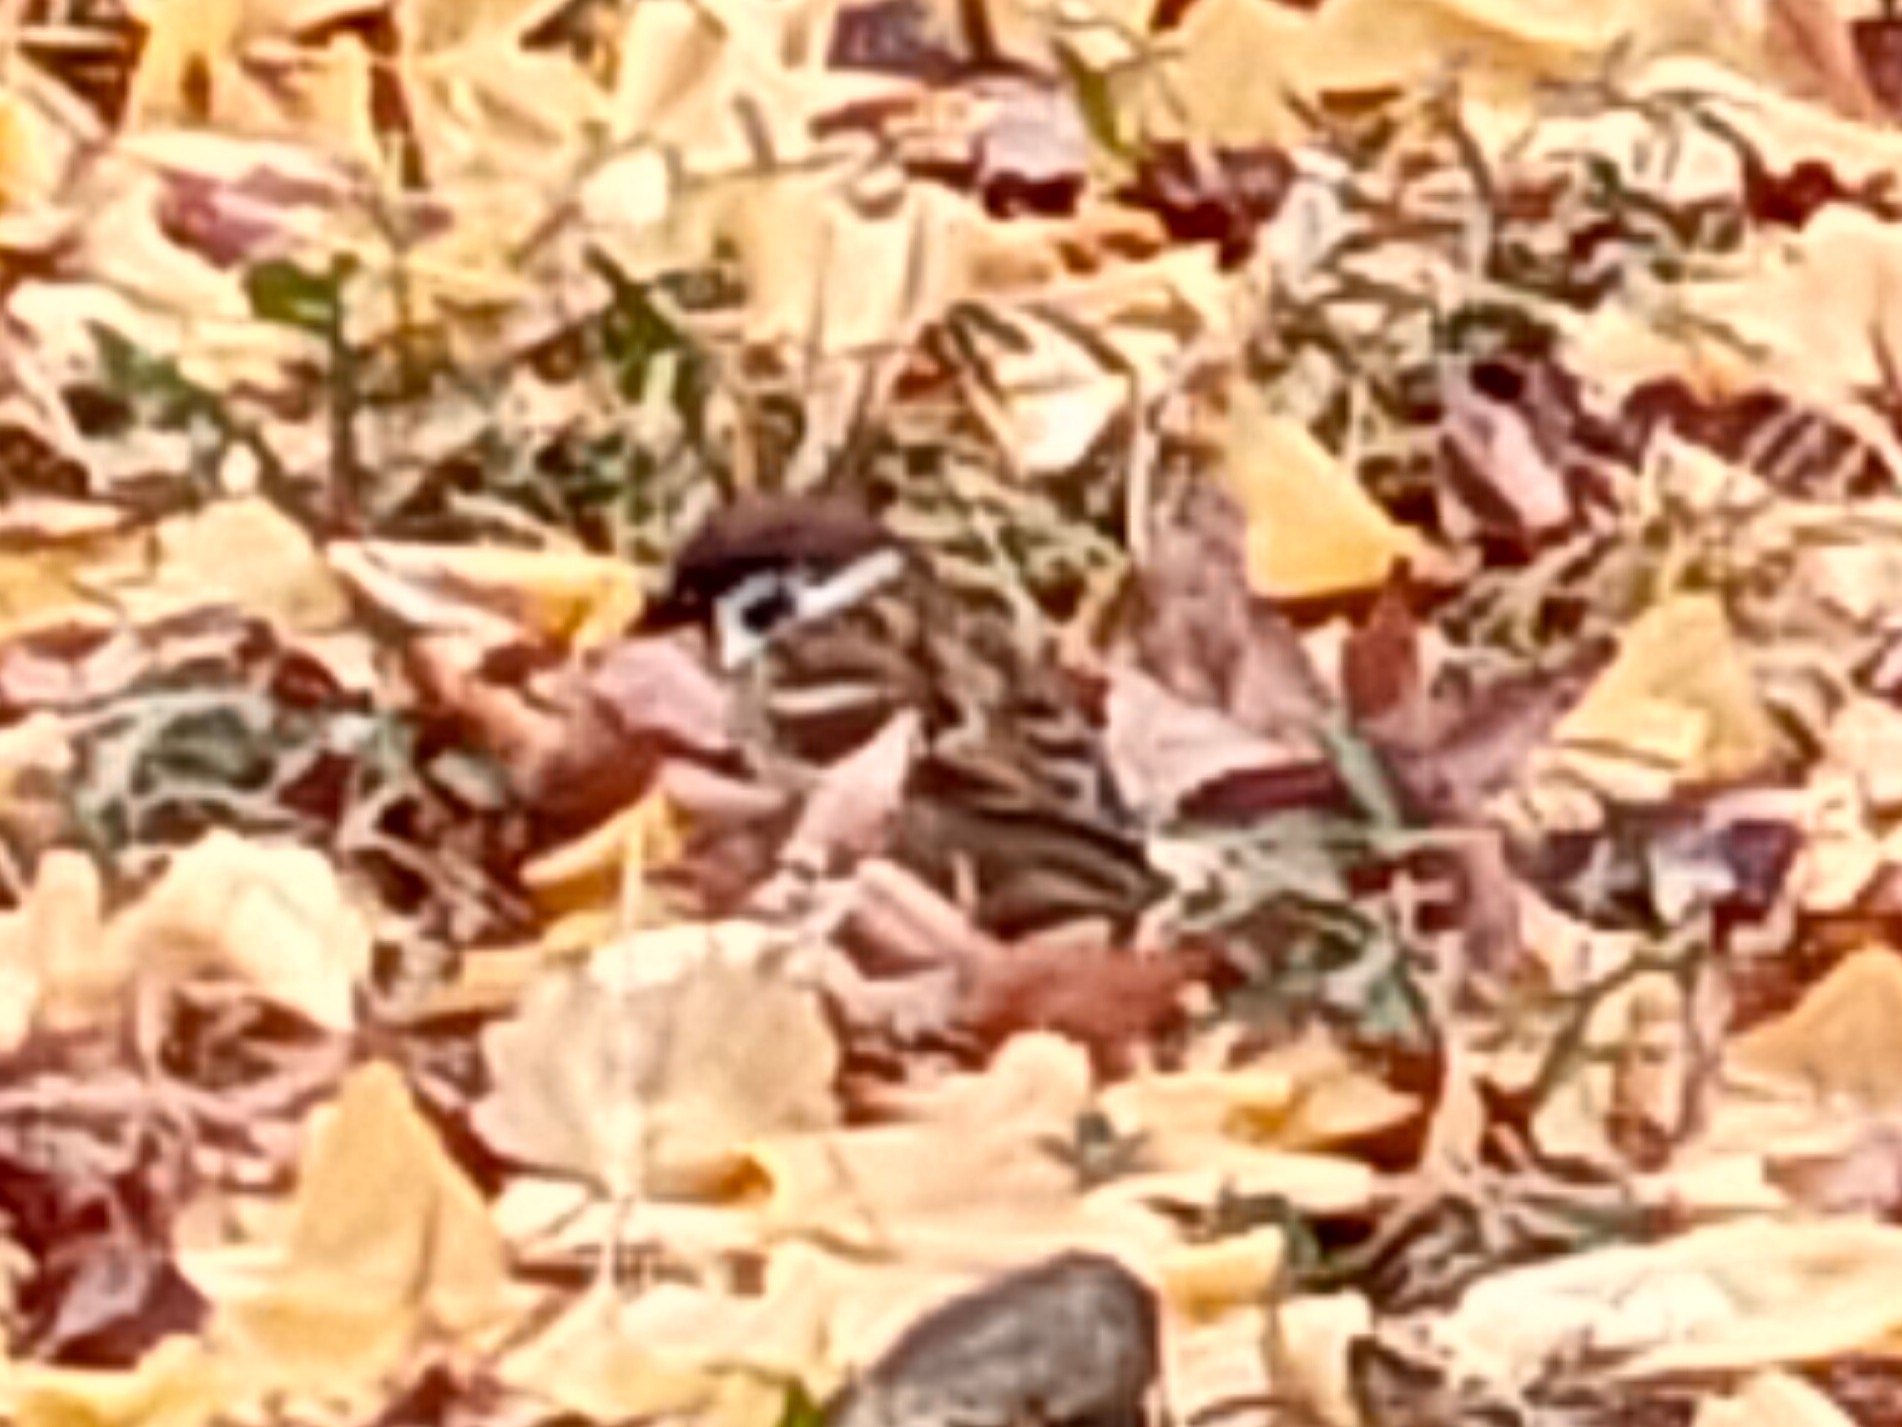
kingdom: Animalia
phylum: Chordata
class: Aves
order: Passeriformes
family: Passeridae
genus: Passer
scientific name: Passer montanus
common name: Eurasian tree sparrow
